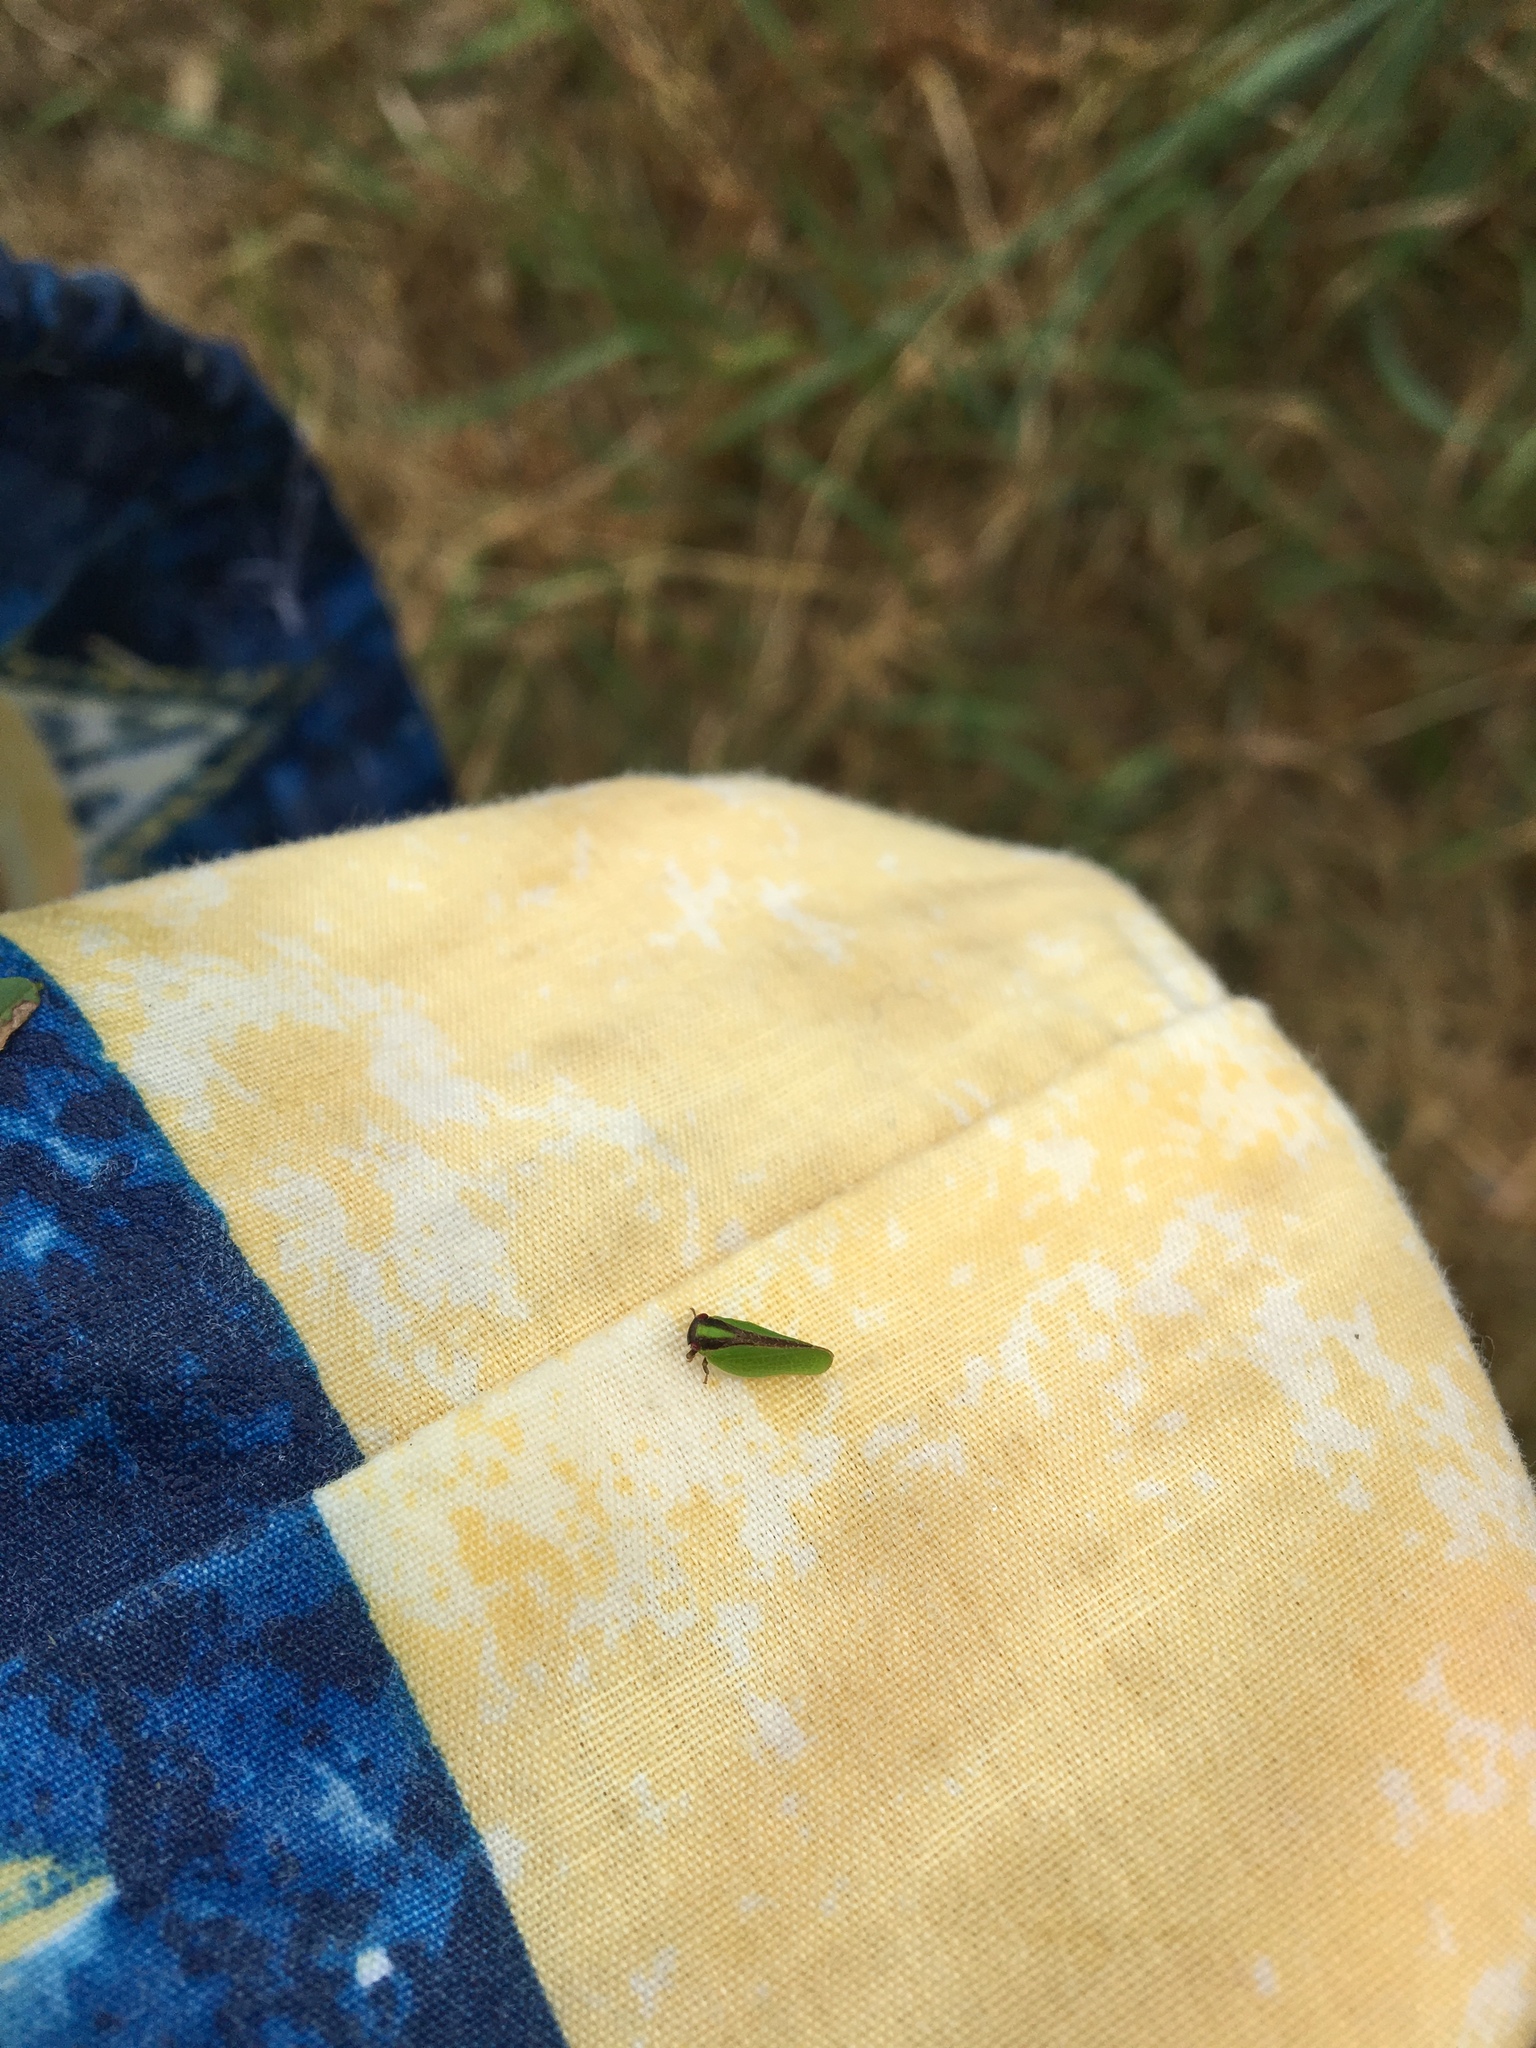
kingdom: Animalia
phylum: Arthropoda
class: Insecta
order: Hemiptera
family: Acanaloniidae
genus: Acanalonia
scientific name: Acanalonia bivittata
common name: Two-striped planthopper
